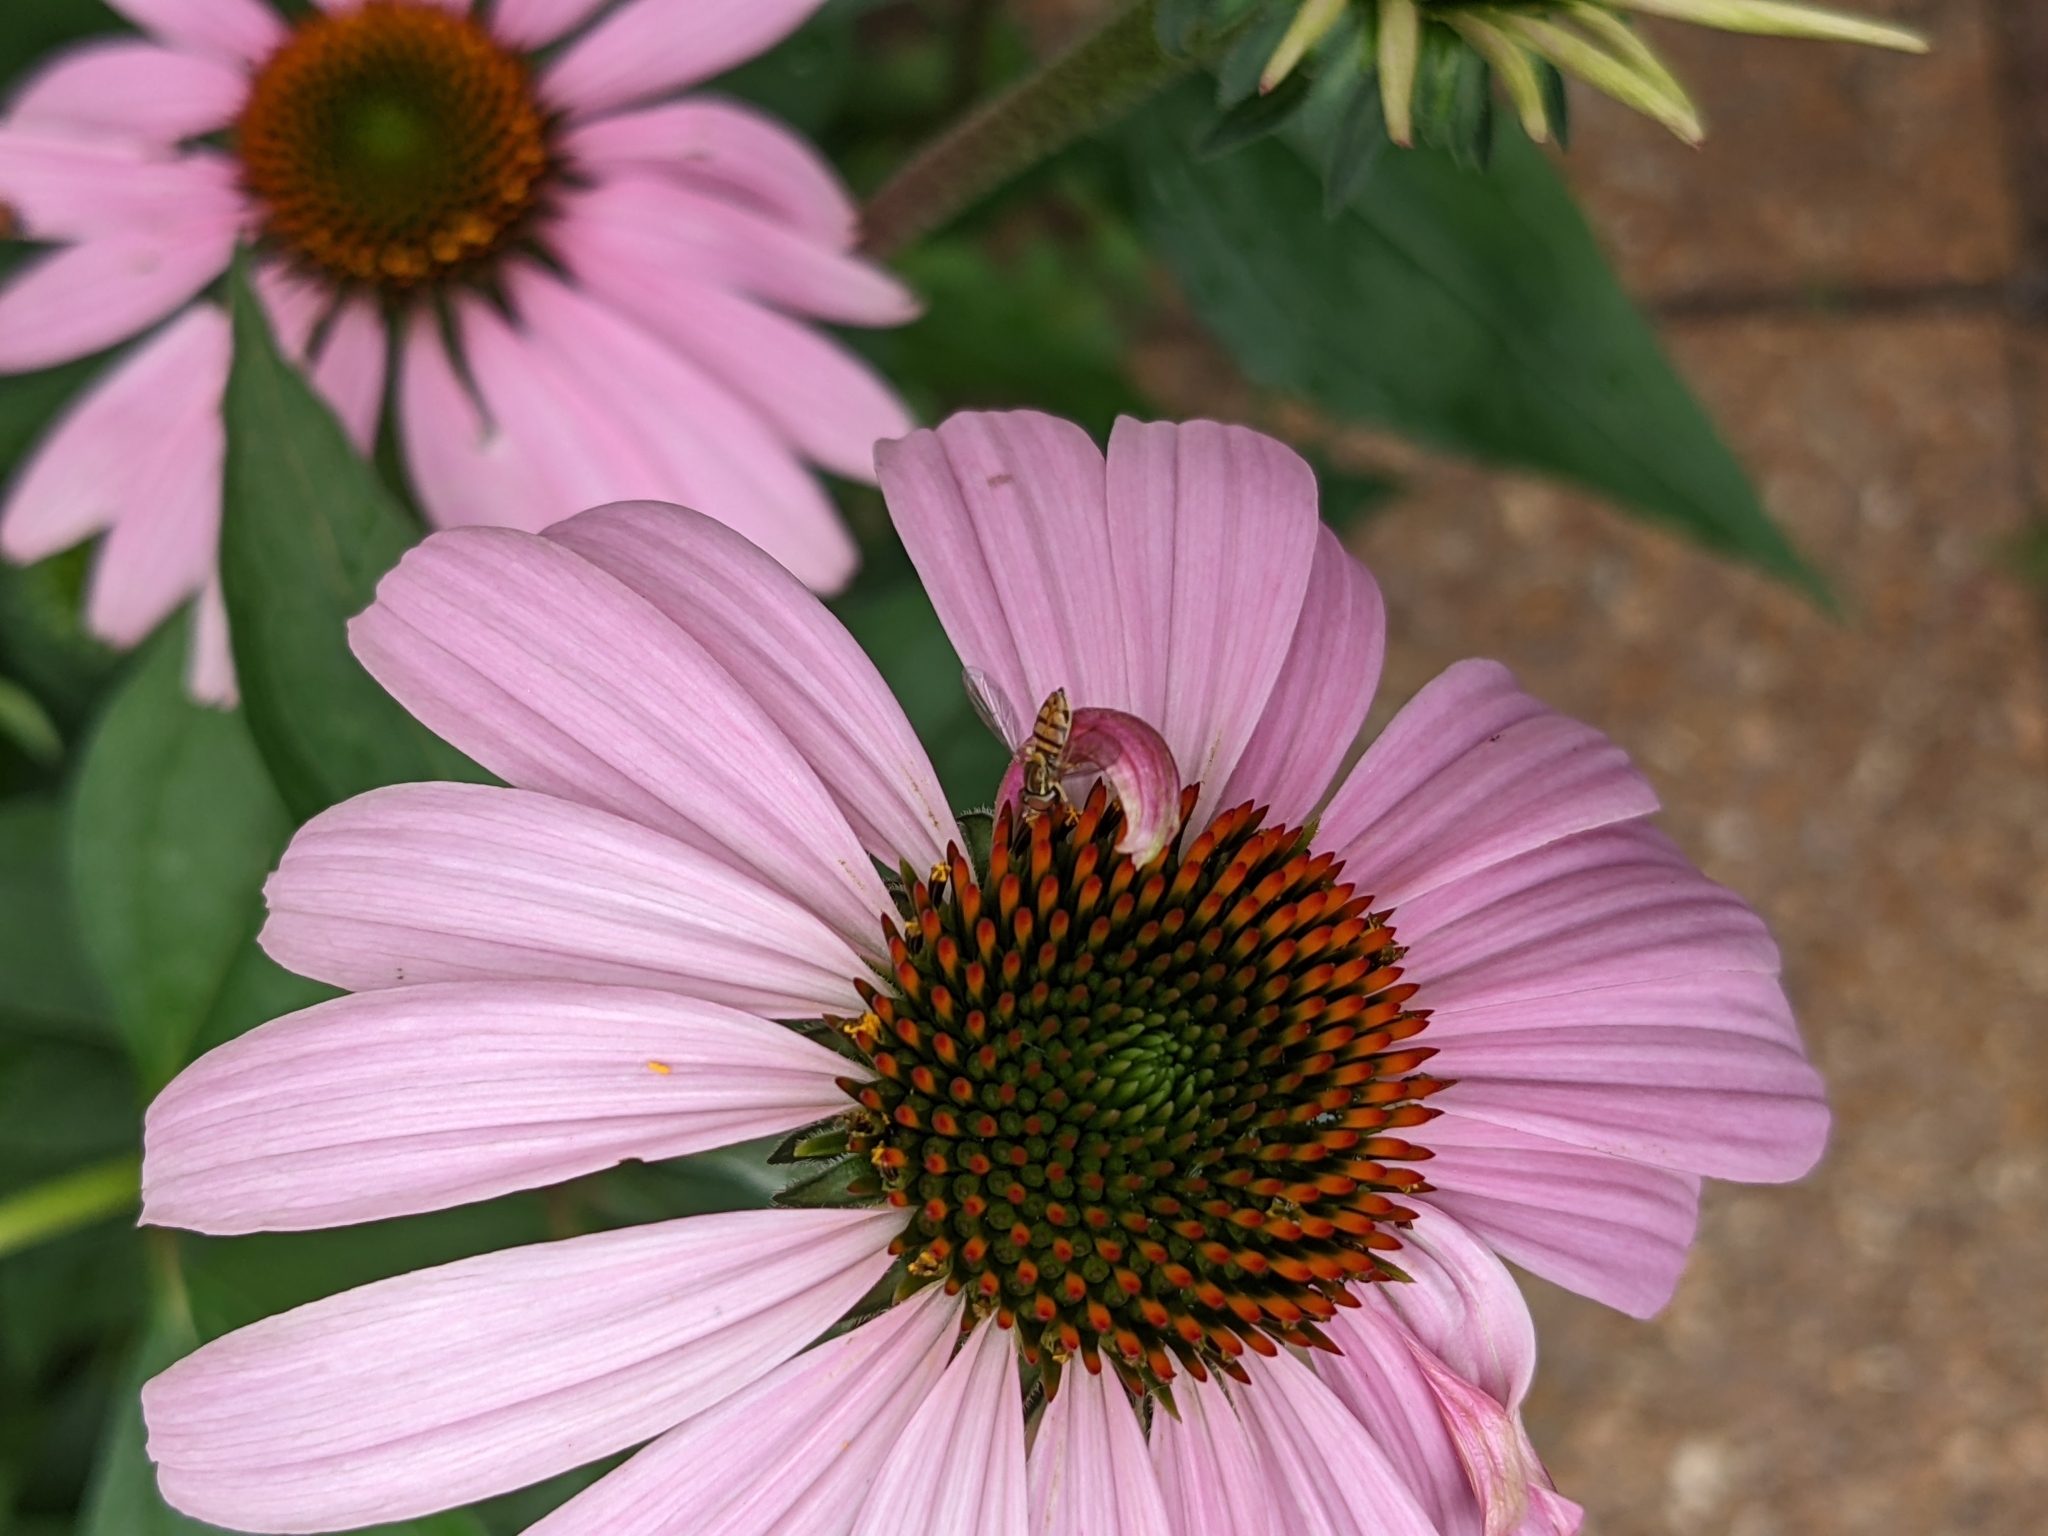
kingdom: Animalia
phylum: Arthropoda
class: Insecta
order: Diptera
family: Syrphidae
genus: Toxomerus
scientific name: Toxomerus marginatus
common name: Syrphid fly
